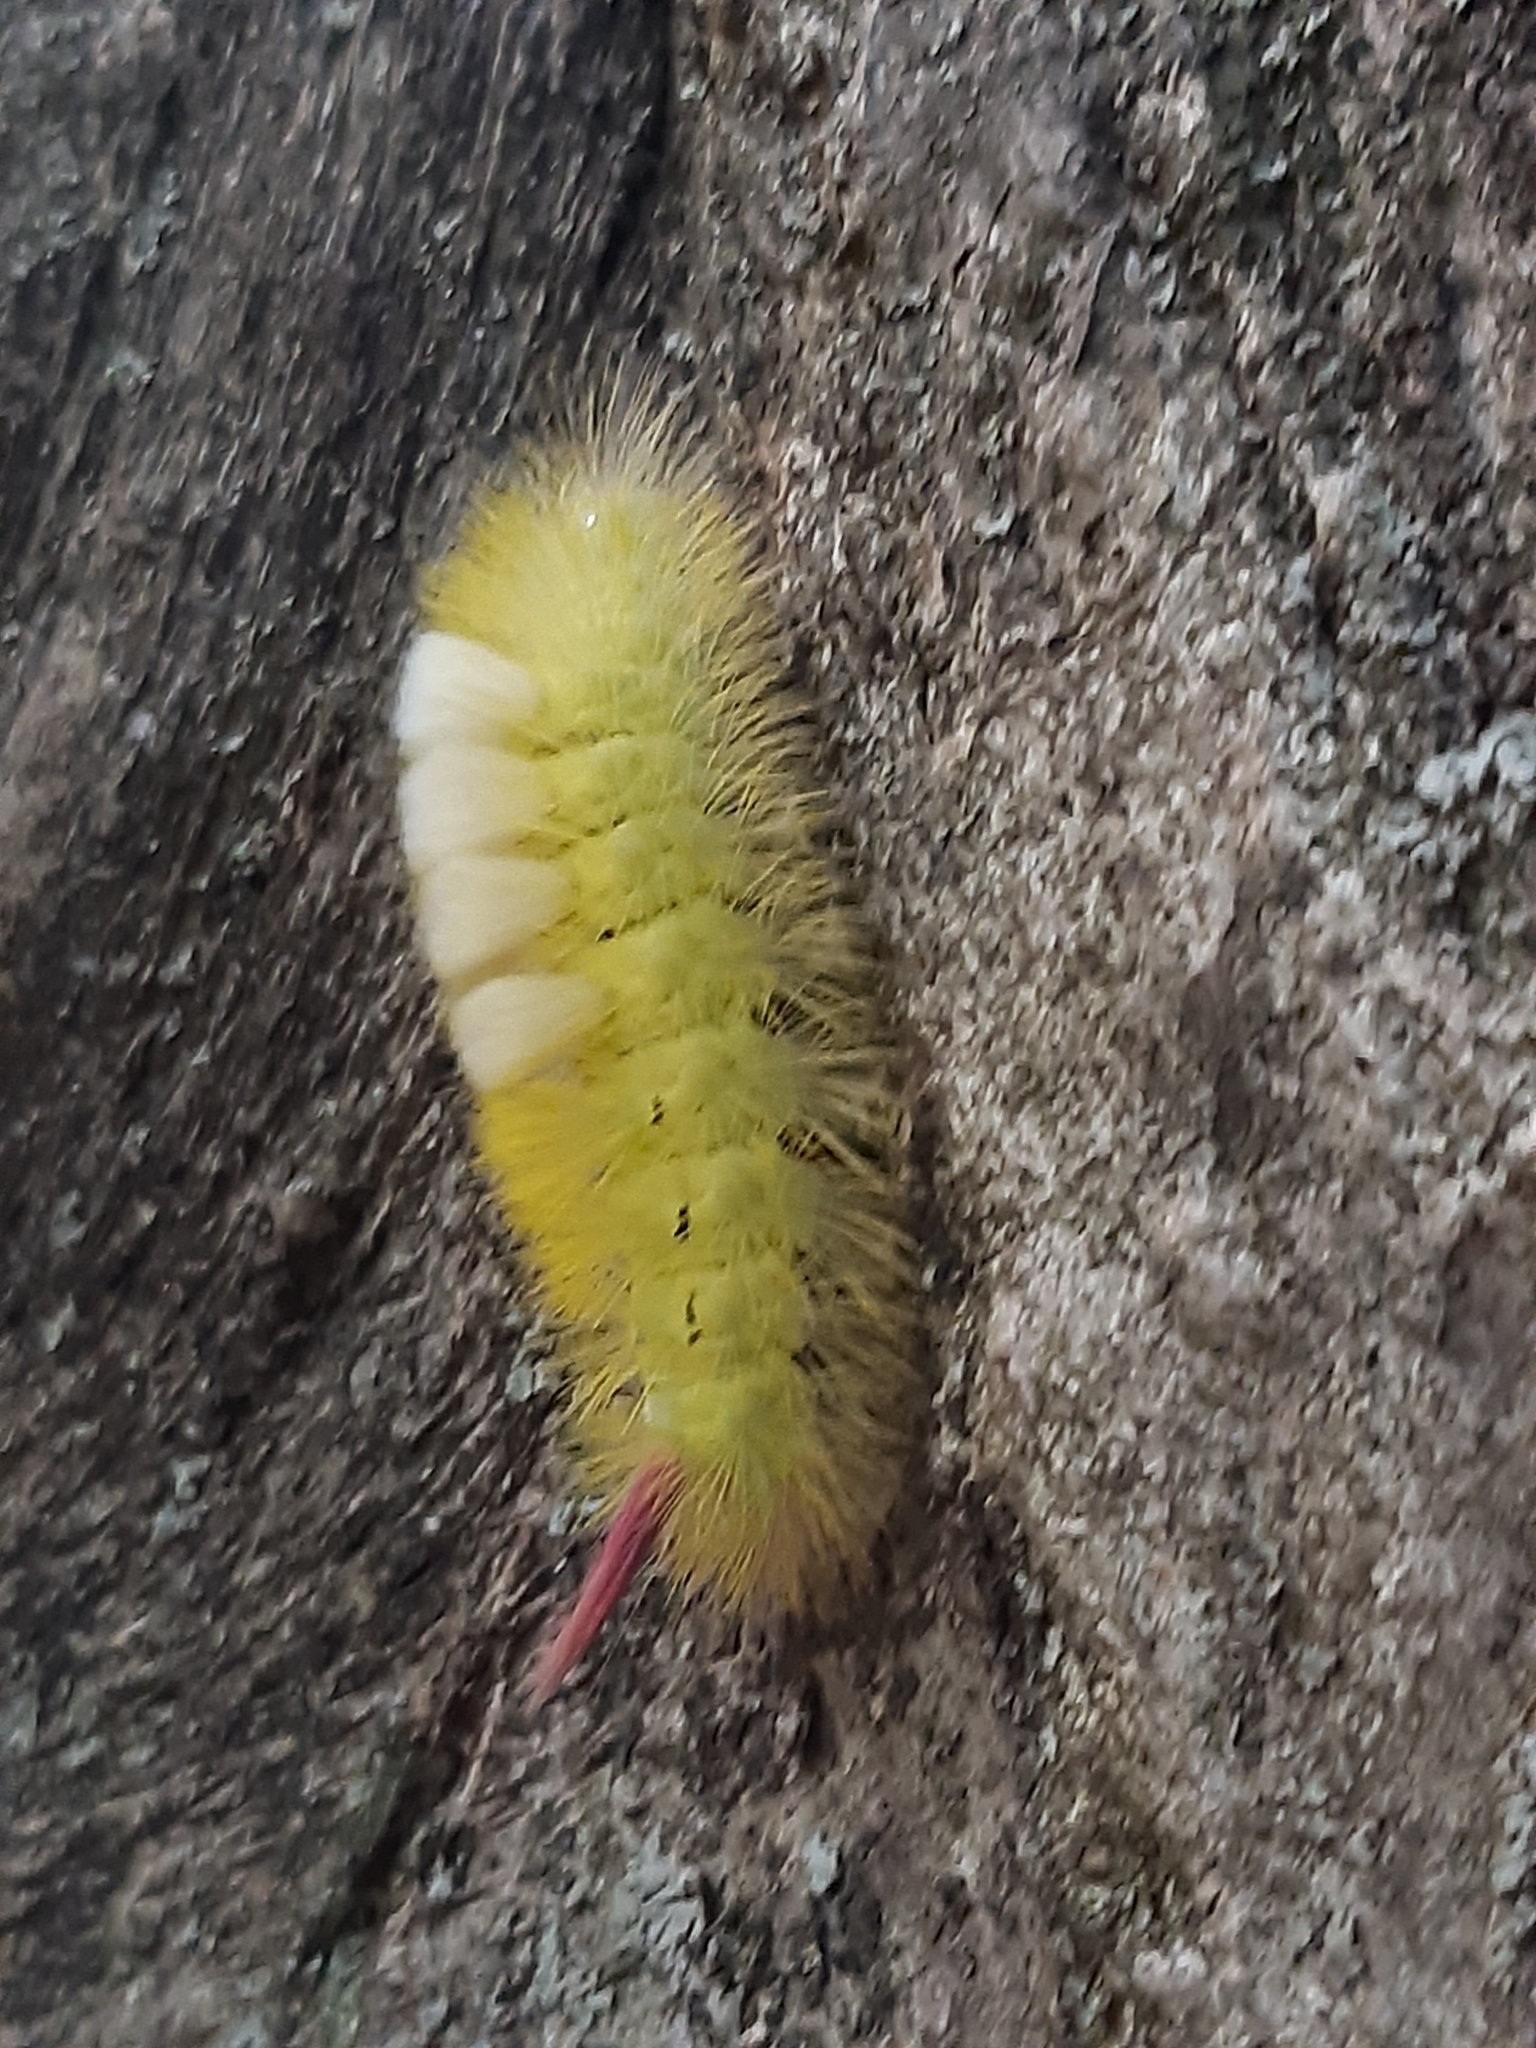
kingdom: Animalia
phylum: Arthropoda
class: Insecta
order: Lepidoptera
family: Erebidae
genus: Calliteara
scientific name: Calliteara pudibunda
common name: Pale tussock
